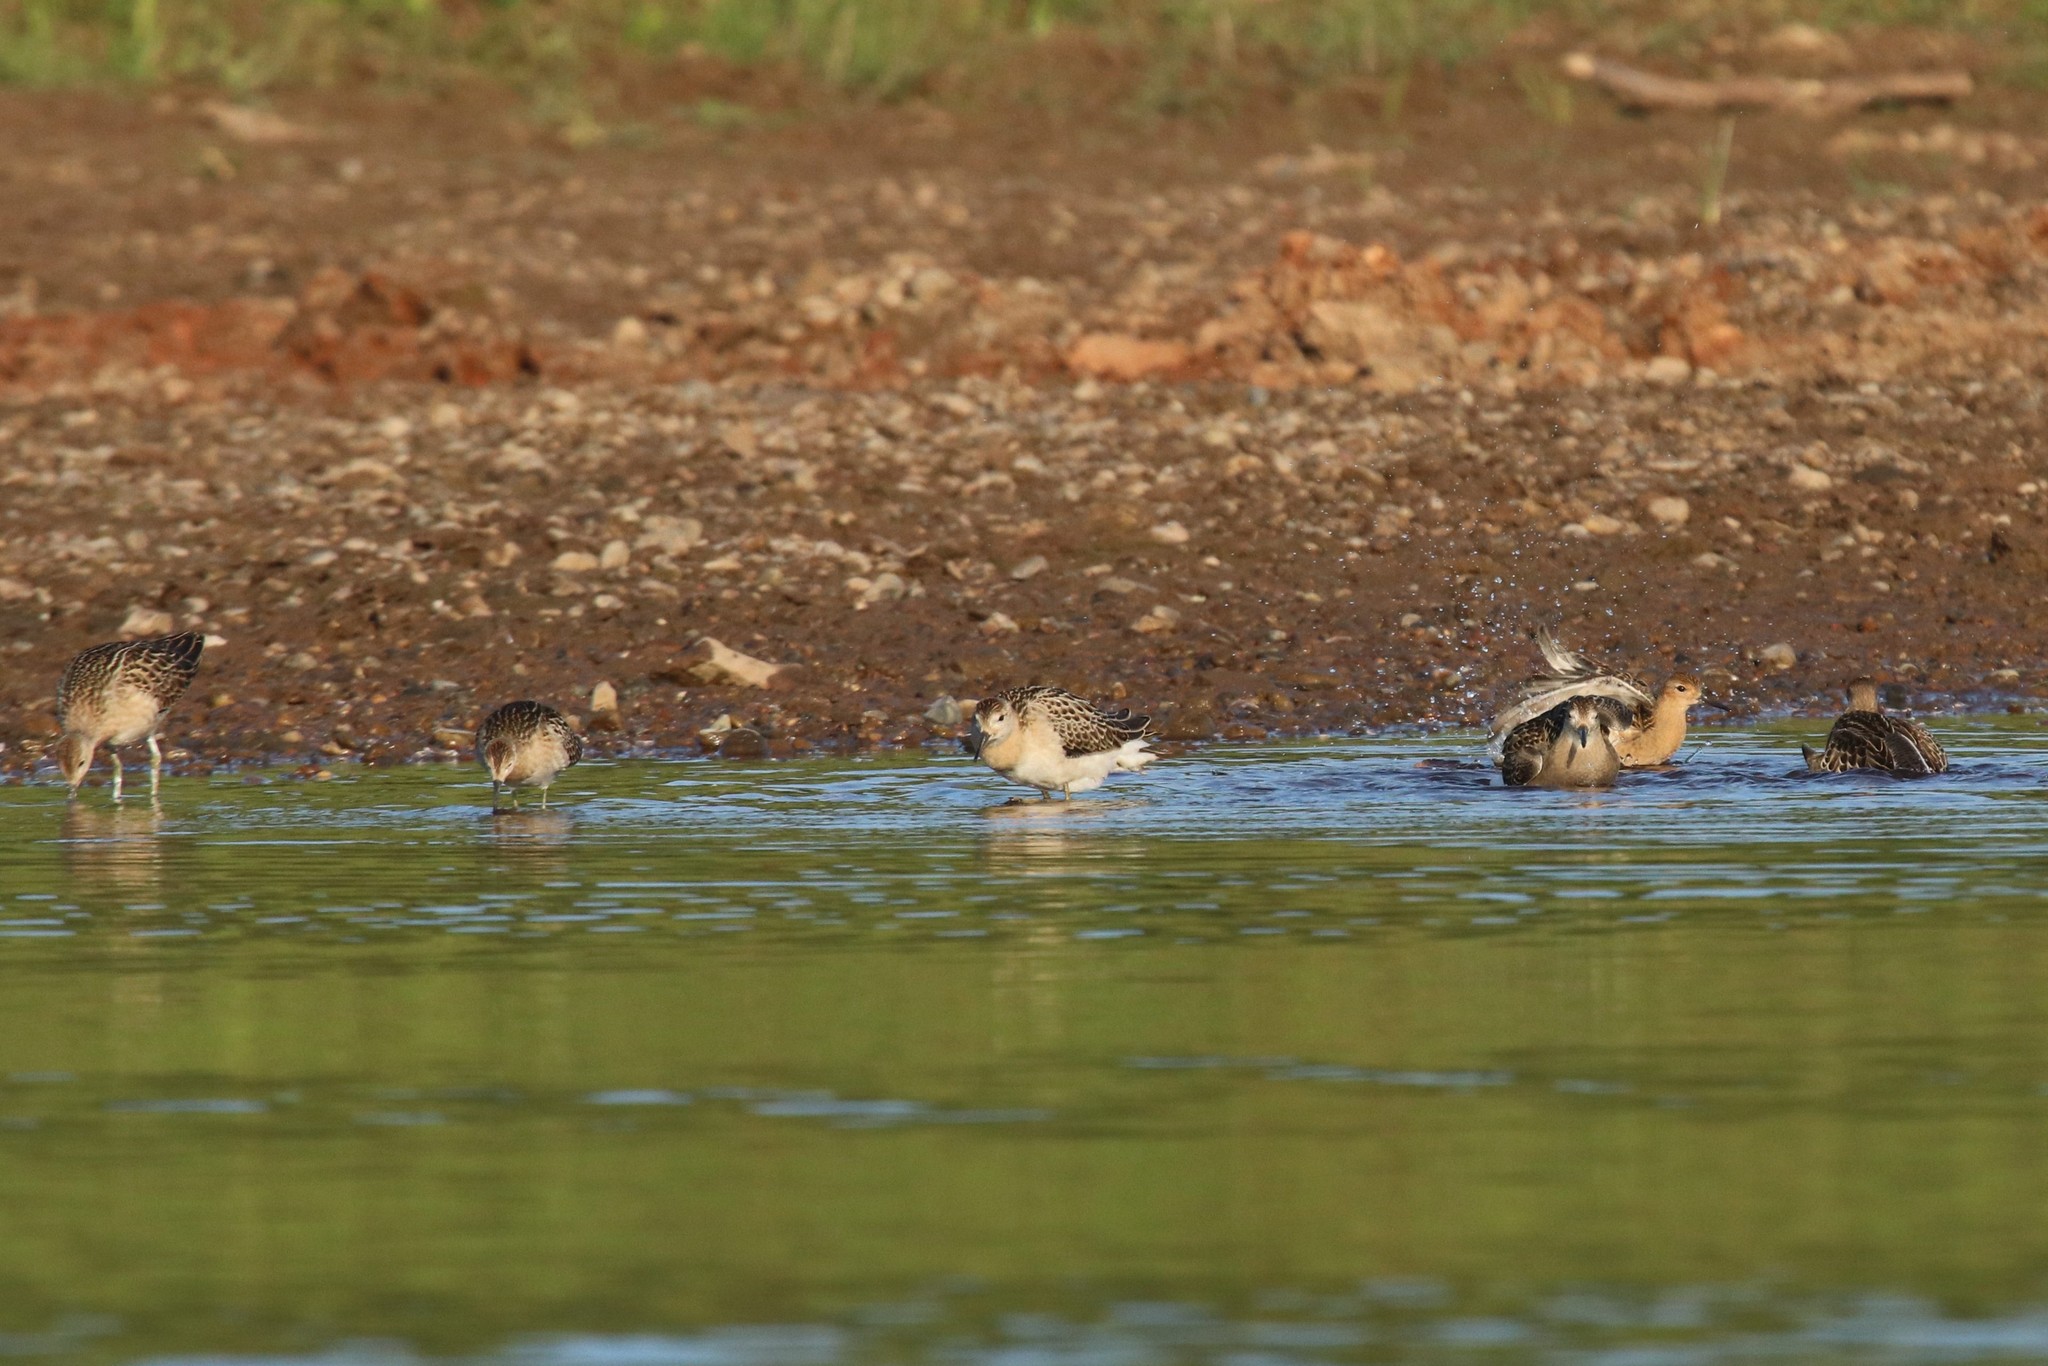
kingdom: Animalia
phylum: Chordata
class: Aves
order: Charadriiformes
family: Scolopacidae
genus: Calidris
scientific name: Calidris pugnax
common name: Ruff
